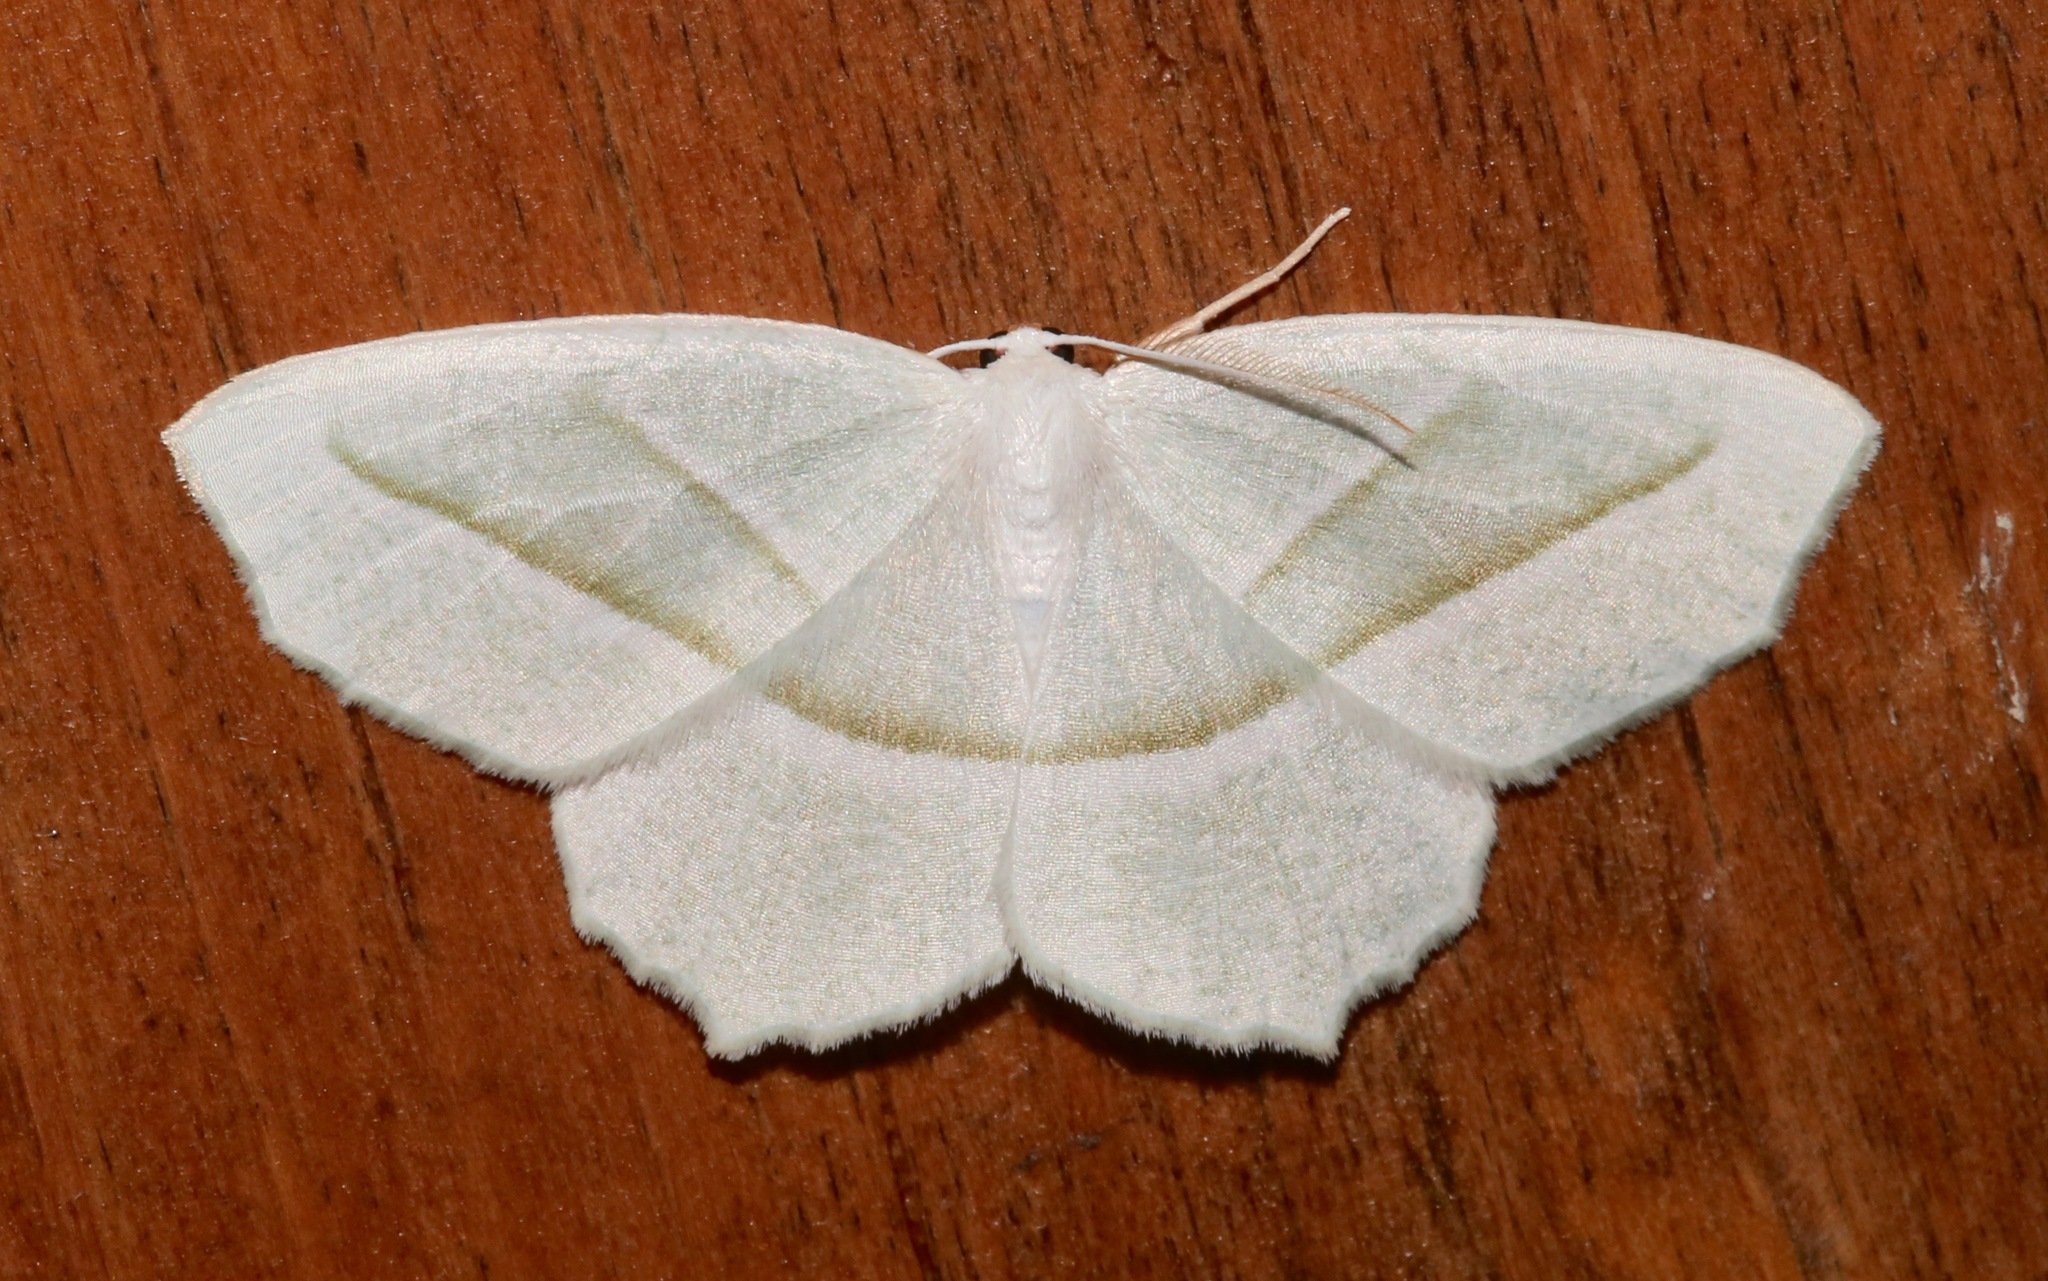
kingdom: Animalia
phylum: Arthropoda
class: Insecta
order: Lepidoptera
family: Geometridae
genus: Campaea
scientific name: Campaea perlata
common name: Fringed looper
